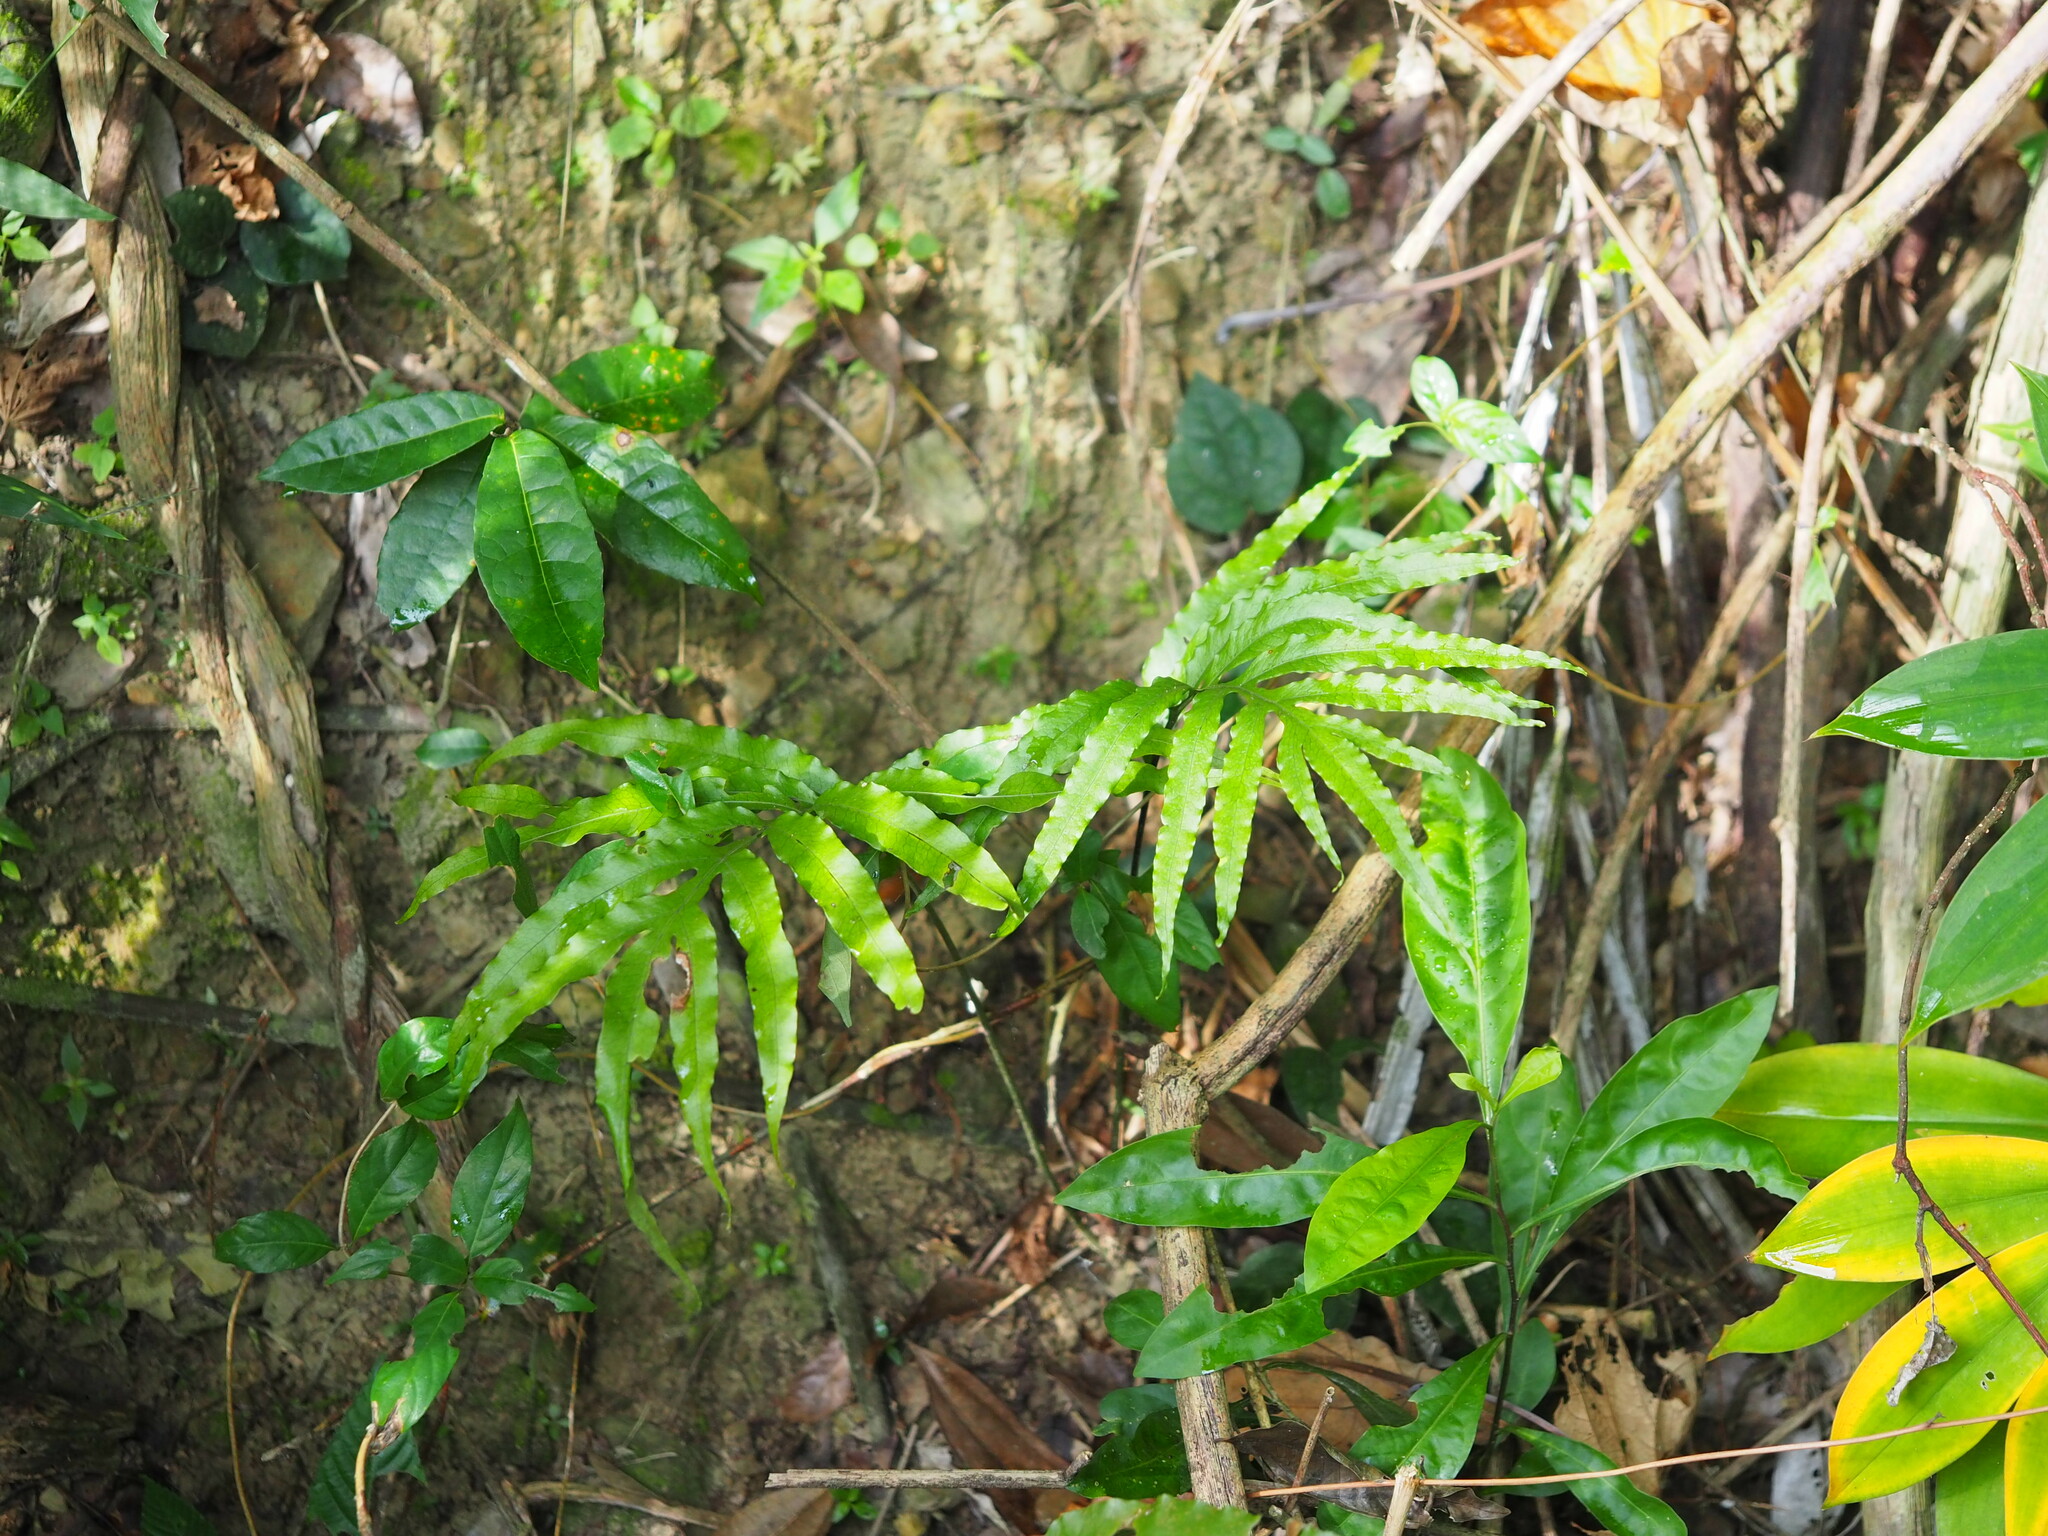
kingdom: Plantae
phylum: Tracheophyta
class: Polypodiopsida
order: Polypodiales
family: Polypodiaceae
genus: Leptochilus
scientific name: Leptochilus ellipticus
